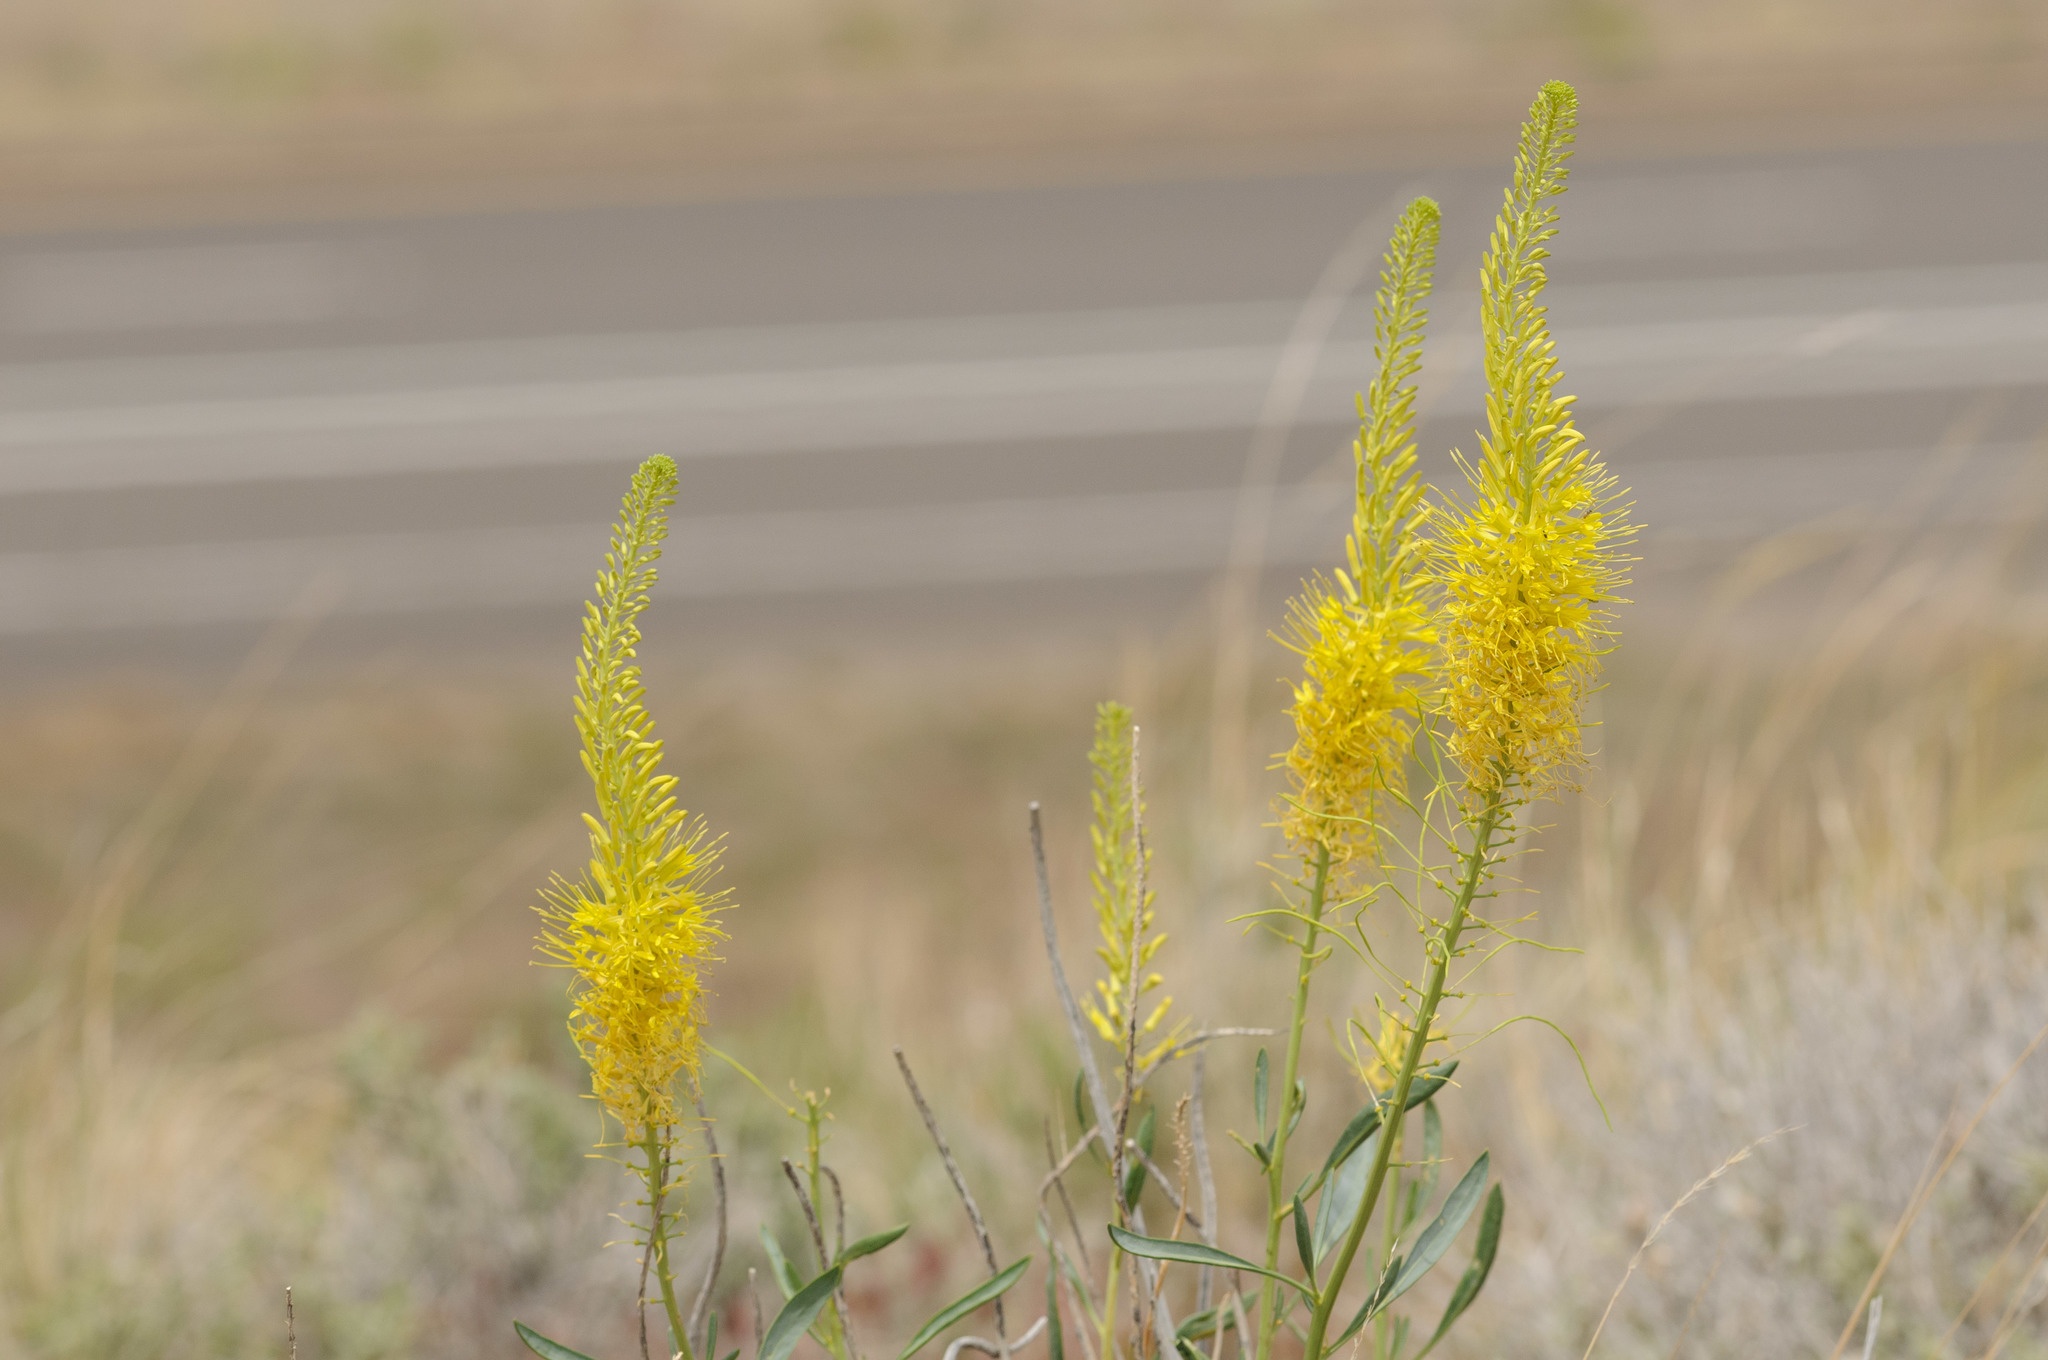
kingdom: Plantae
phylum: Tracheophyta
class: Magnoliopsida
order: Brassicales
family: Brassicaceae
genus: Stanleya
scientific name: Stanleya pinnata
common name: Prince's-plume
